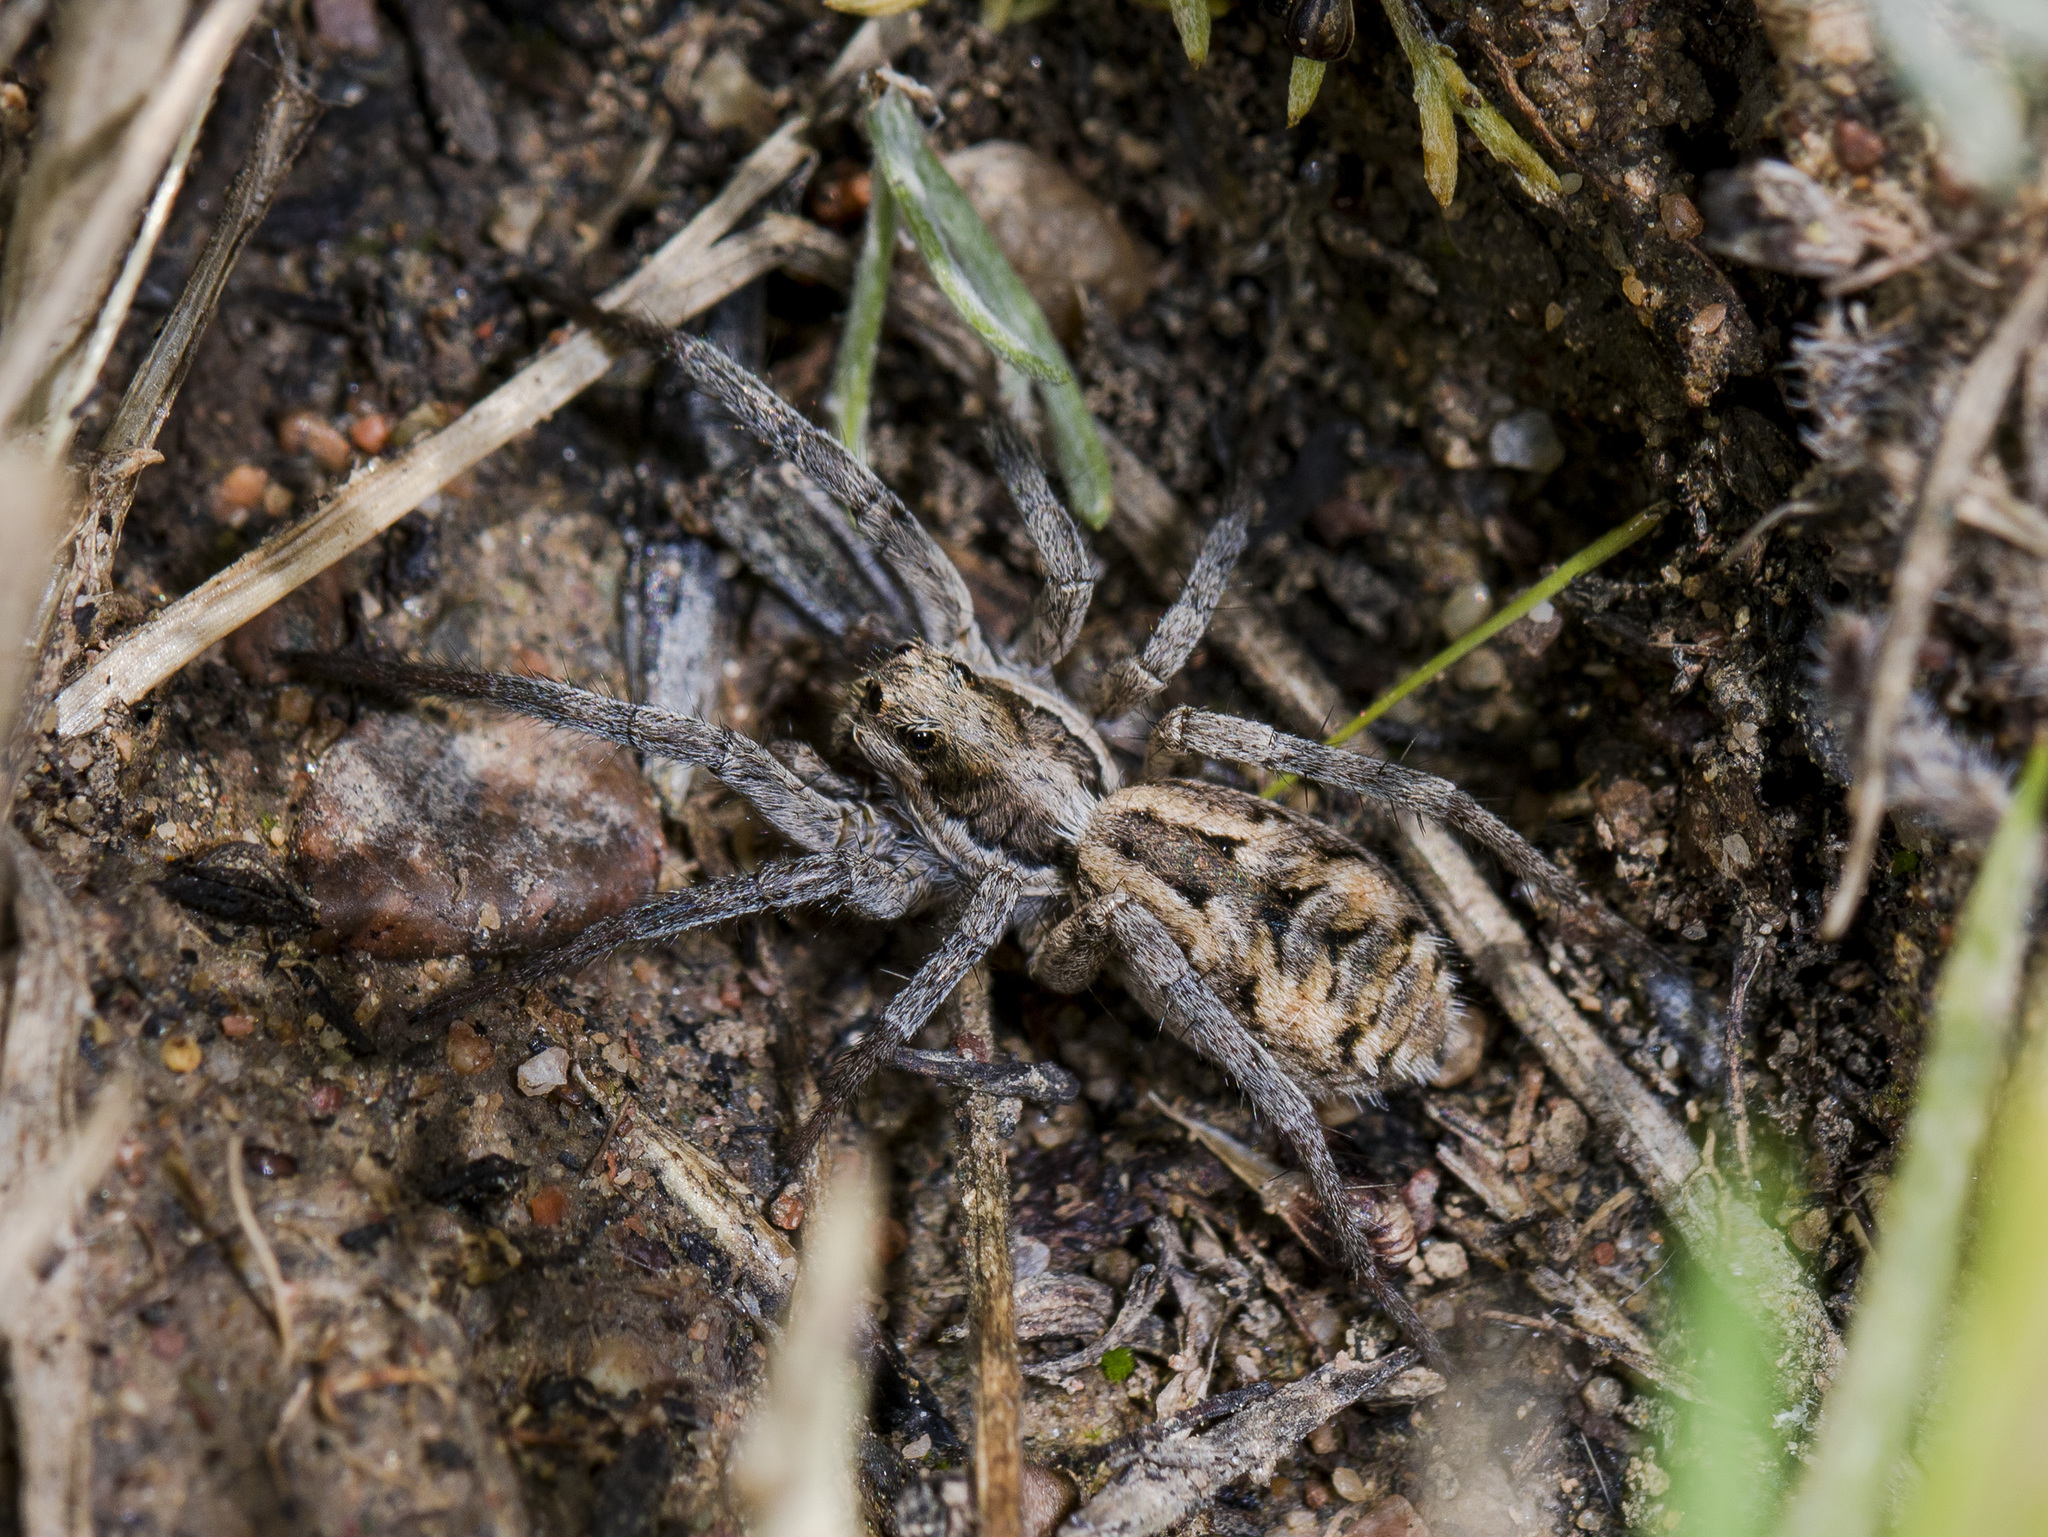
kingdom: Animalia
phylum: Arthropoda
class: Arachnida
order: Araneae
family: Lycosidae
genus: Lycosa
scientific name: Lycosa praegrandis
